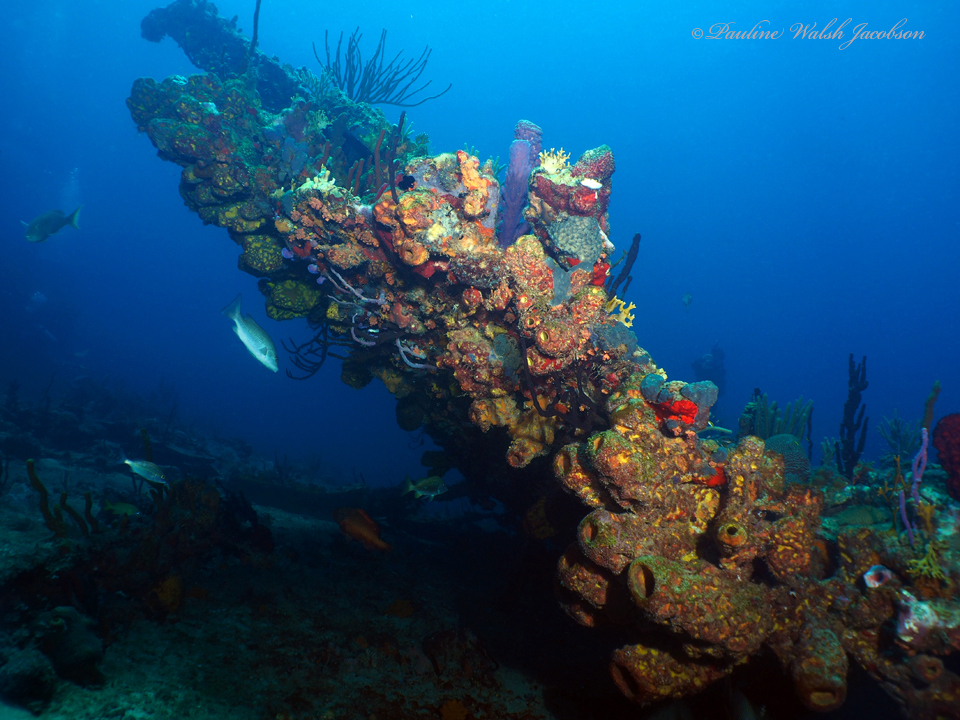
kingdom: Animalia
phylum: Porifera
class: Demospongiae
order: Verongiida
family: Aplysinidae
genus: Aplysina
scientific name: Aplysina lacunosa
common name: Convoluted barrel sponge
